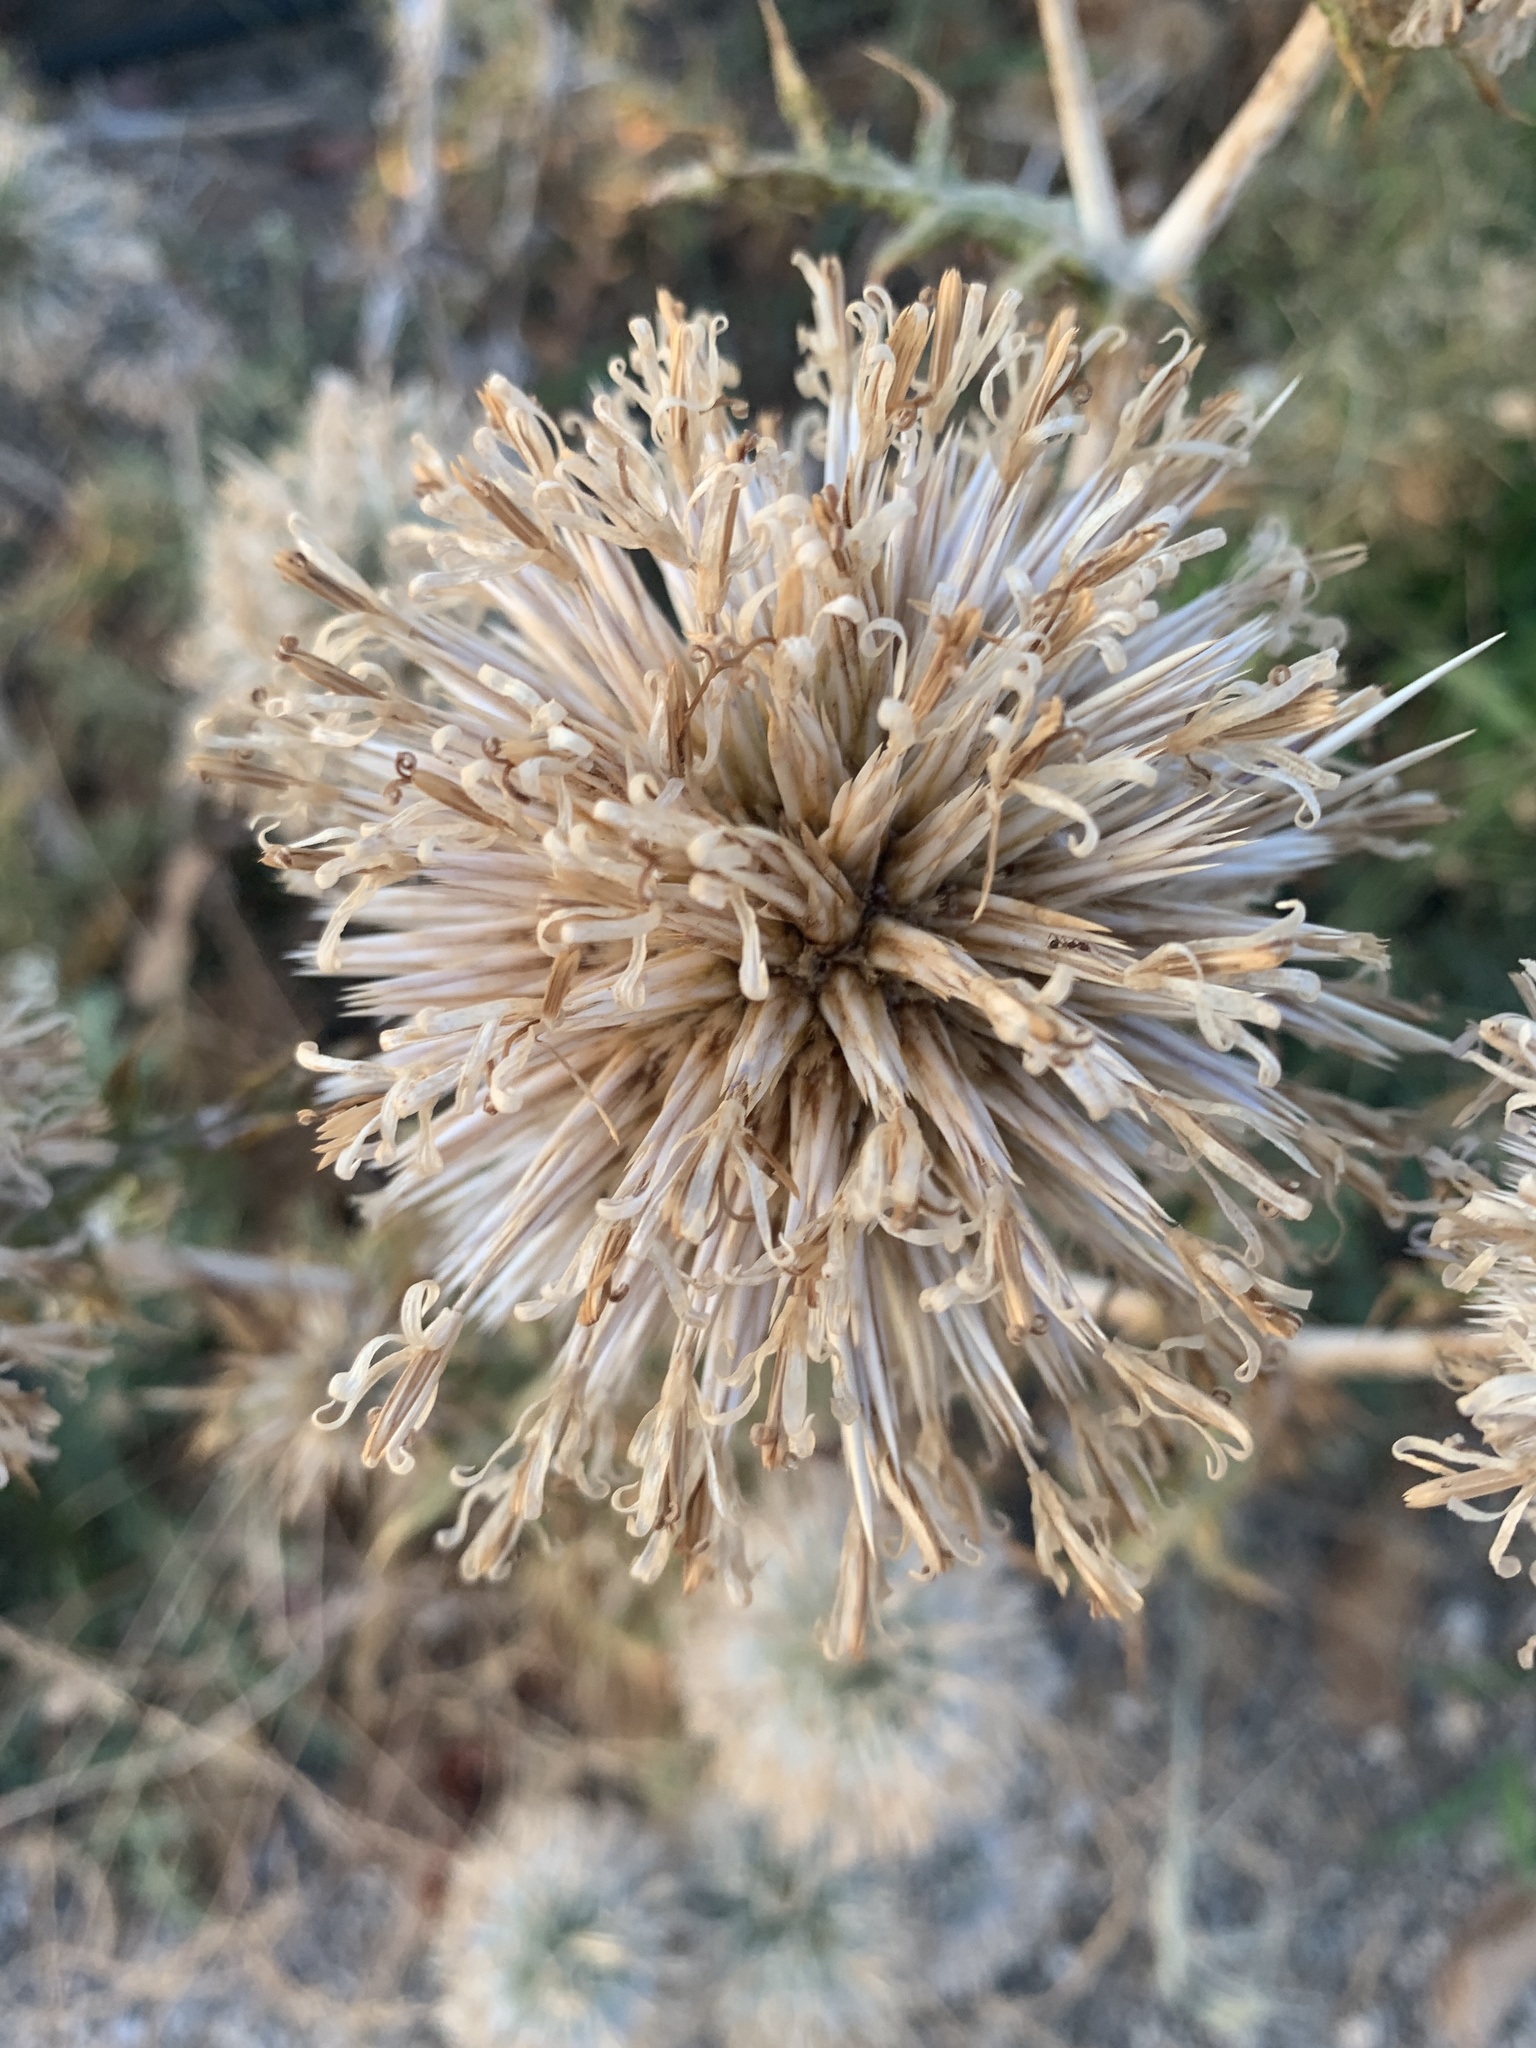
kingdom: Plantae
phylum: Tracheophyta
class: Magnoliopsida
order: Asterales
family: Asteraceae
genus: Echinops
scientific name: Echinops spinosissimus
